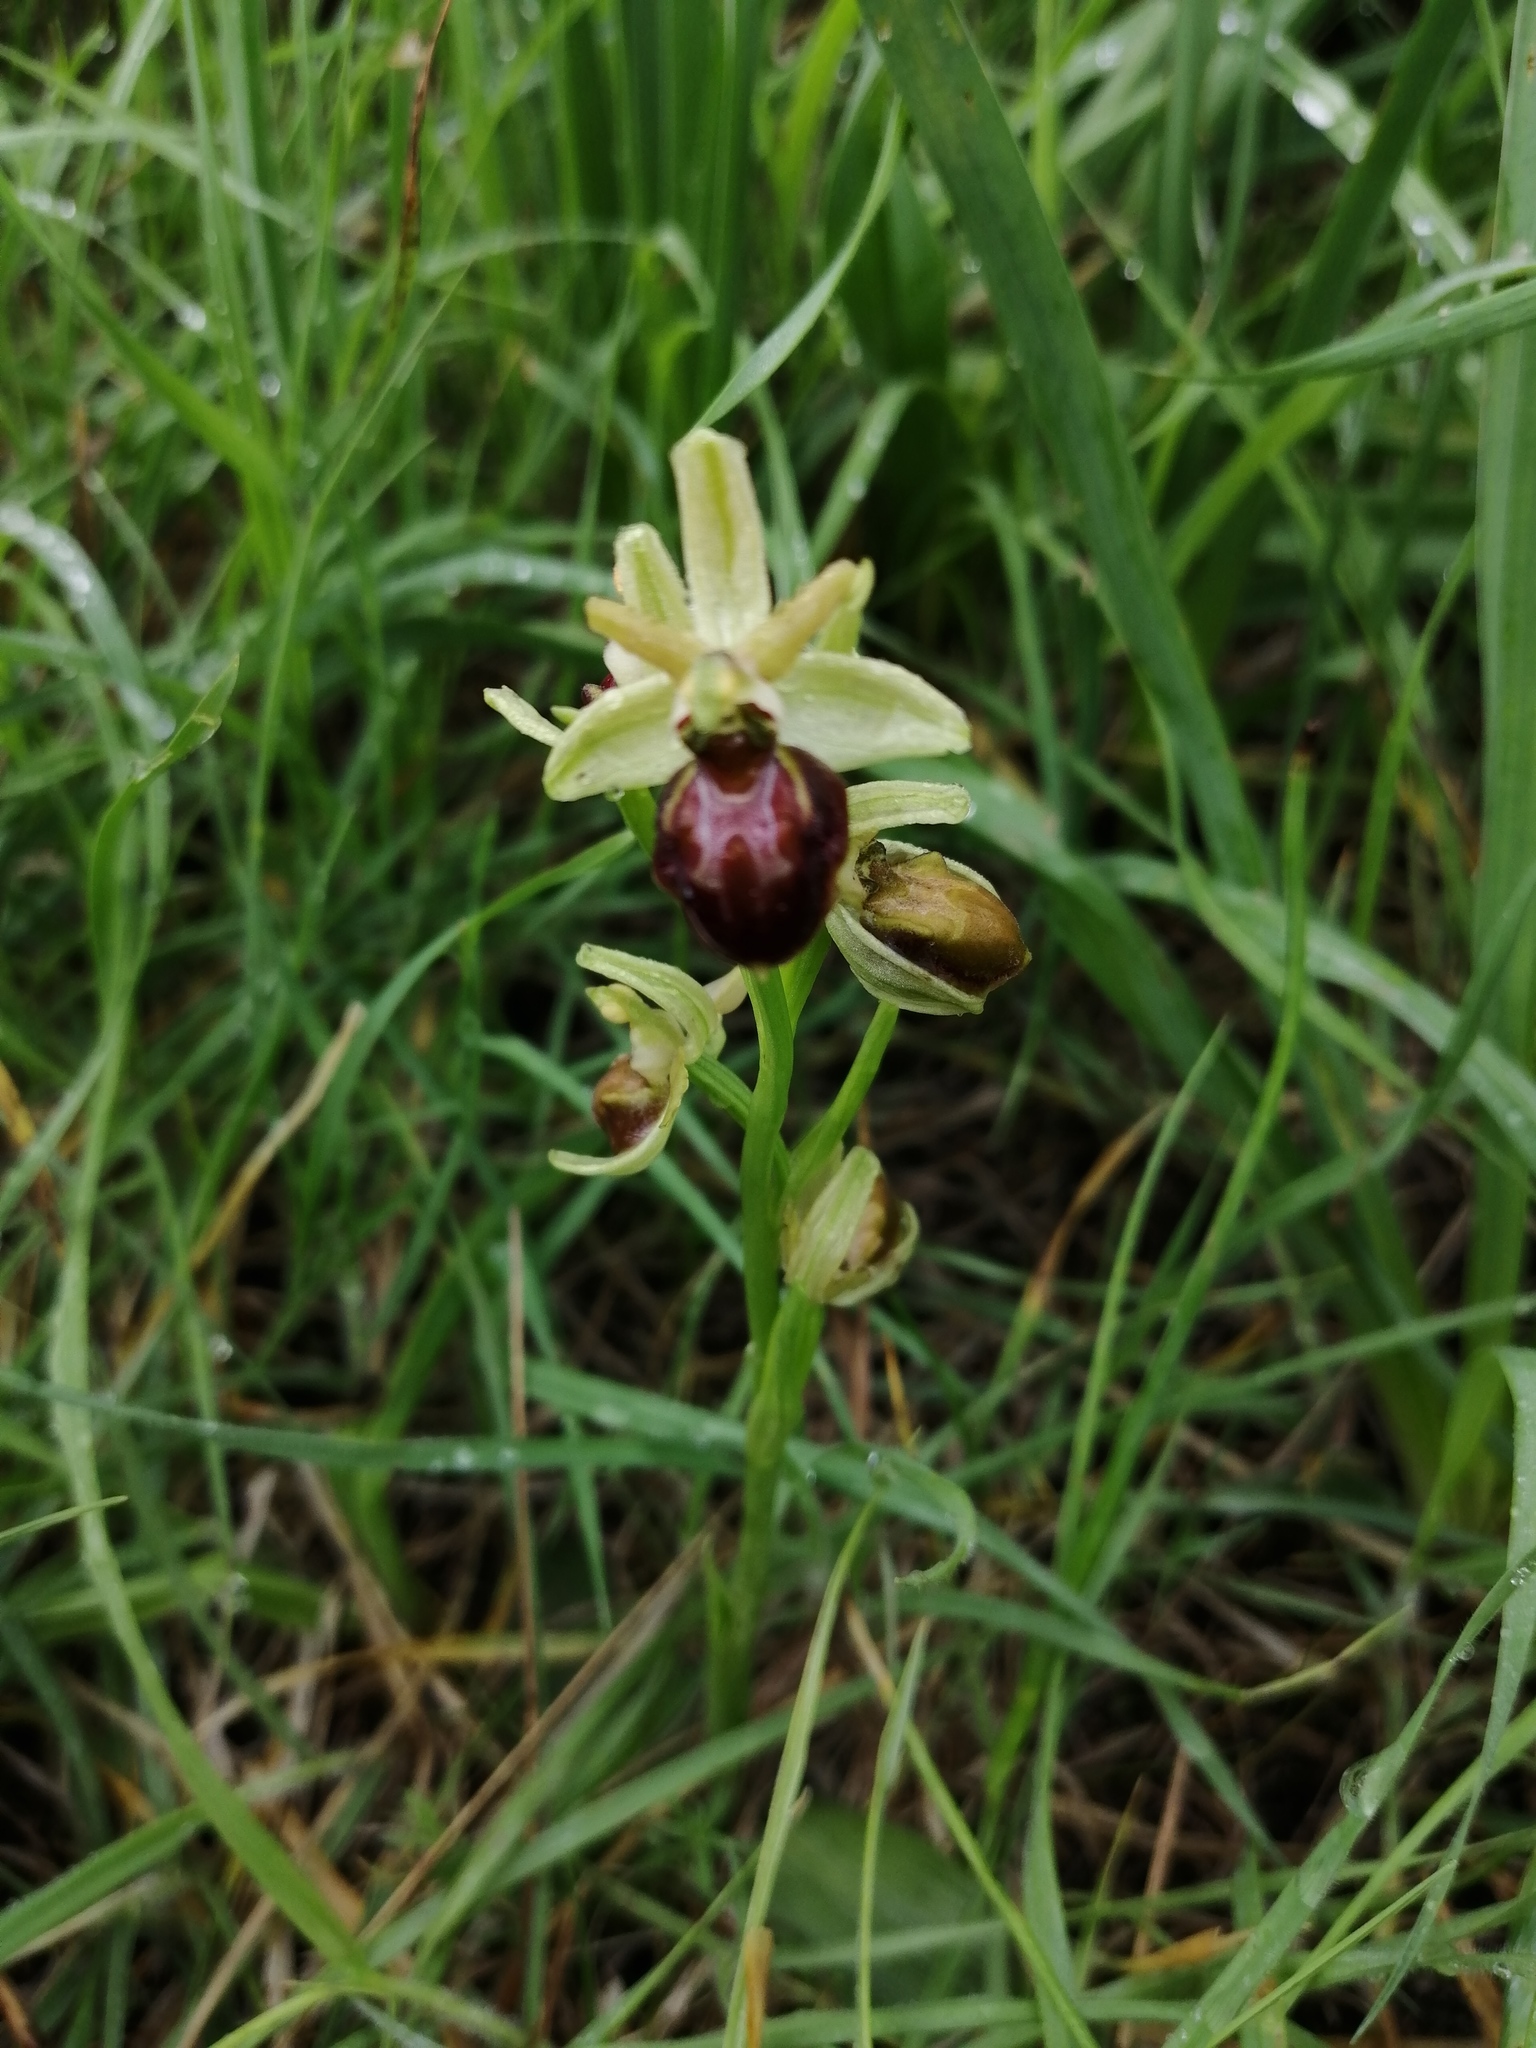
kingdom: Plantae
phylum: Tracheophyta
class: Liliopsida
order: Asparagales
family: Orchidaceae
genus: Ophrys
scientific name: Ophrys sphegodes
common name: Early spider-orchid
